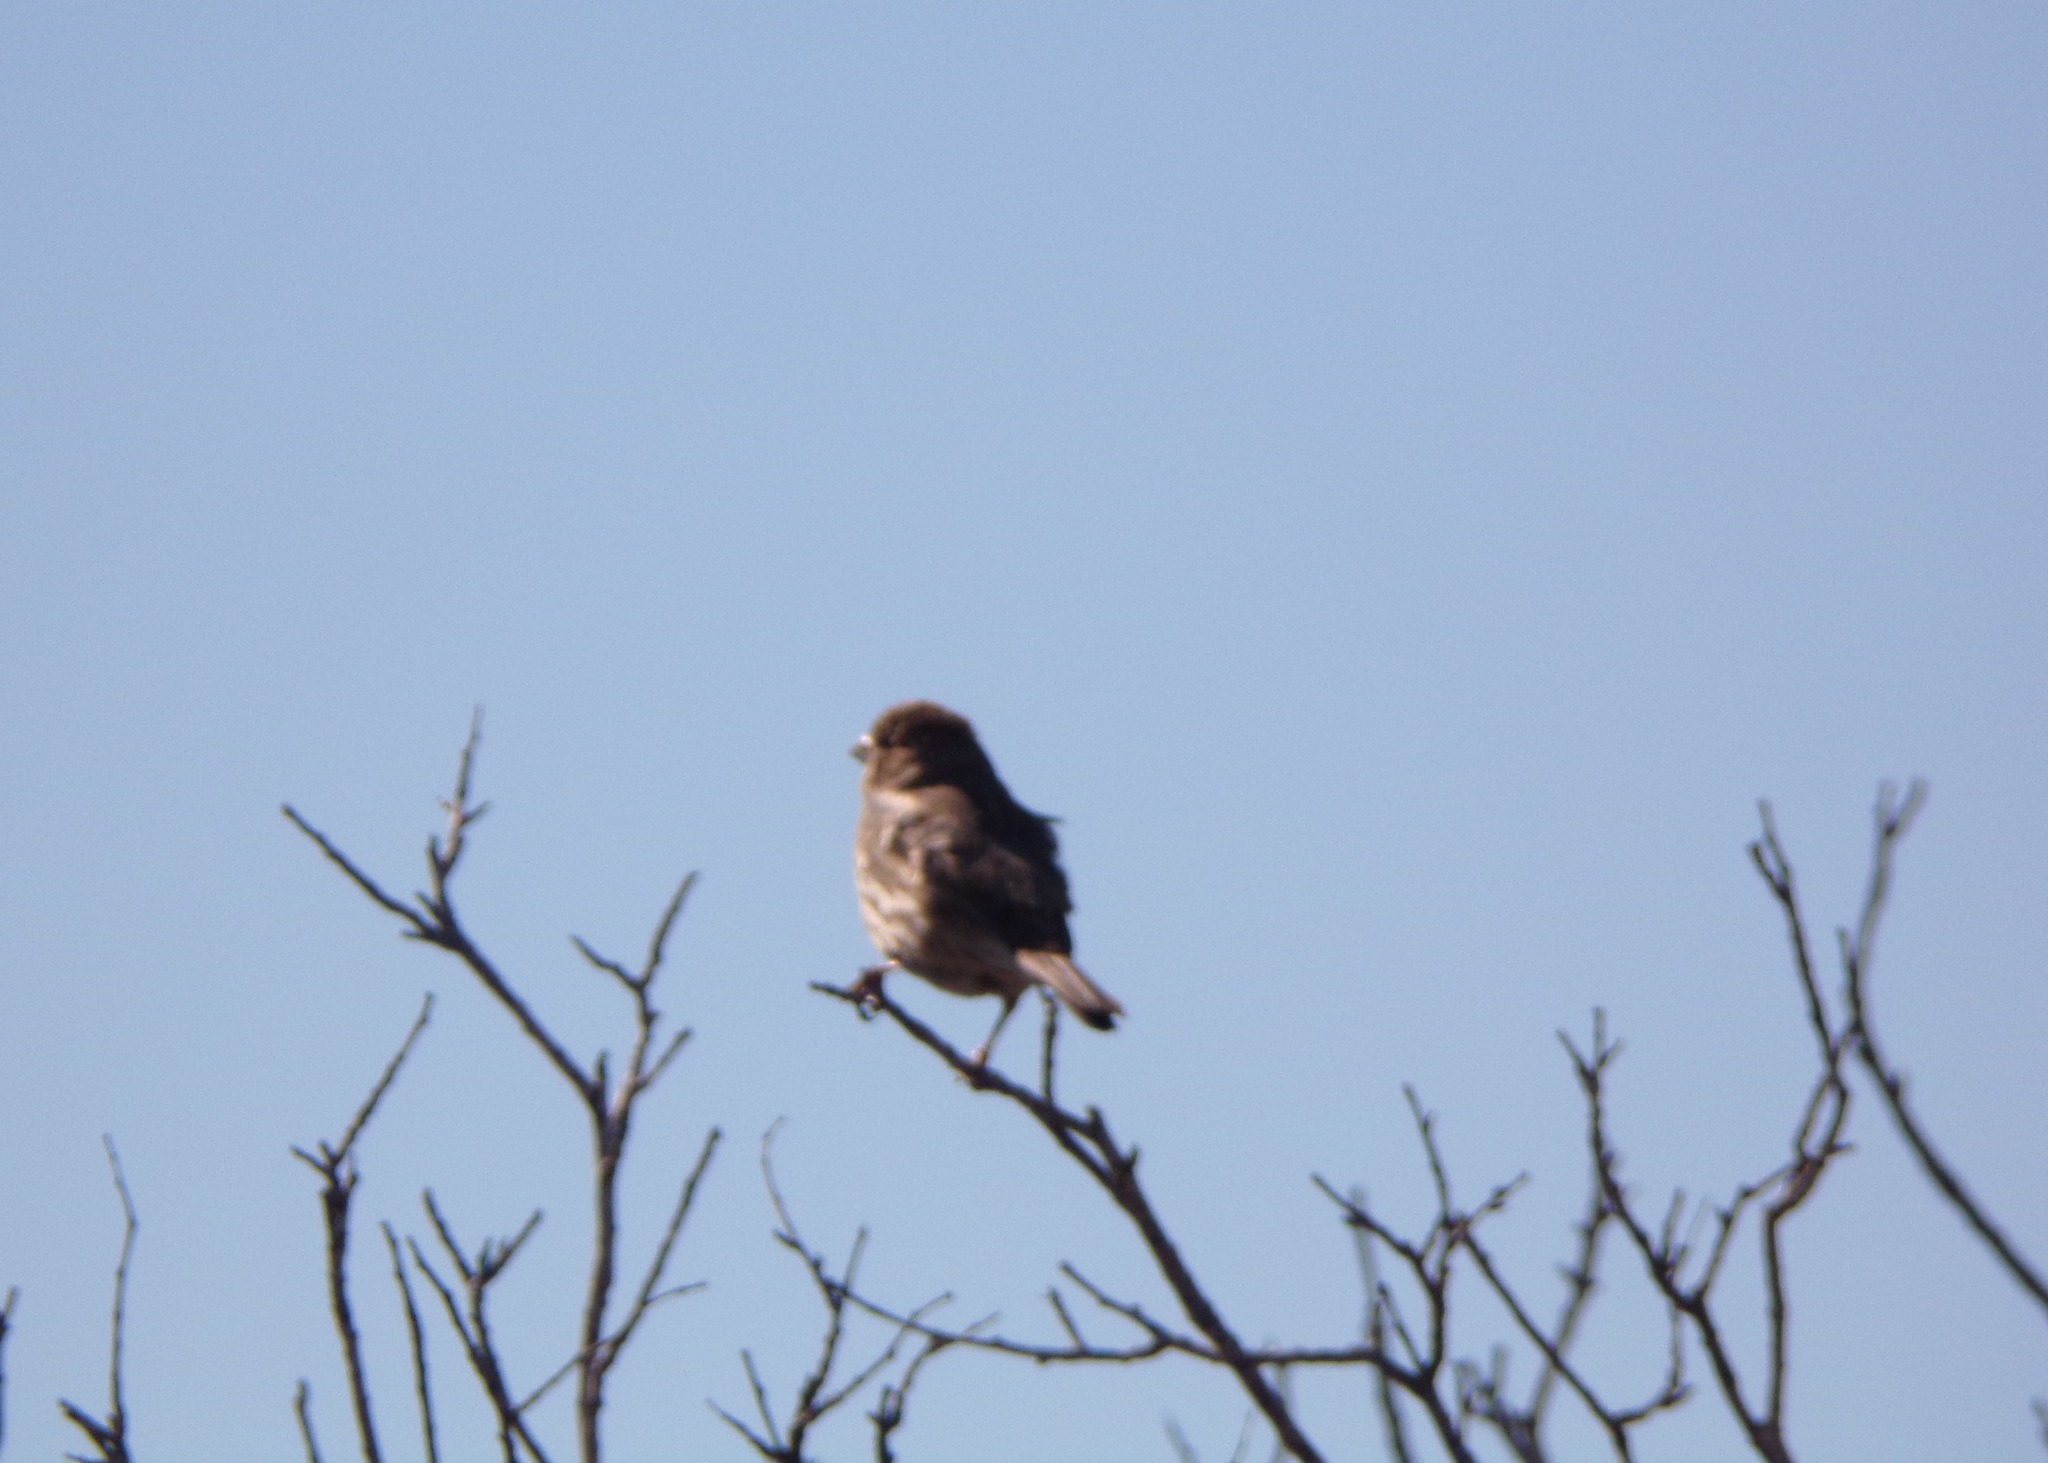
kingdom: Animalia
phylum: Chordata
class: Aves
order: Passeriformes
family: Fringillidae
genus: Haemorhous
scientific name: Haemorhous mexicanus
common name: House finch
